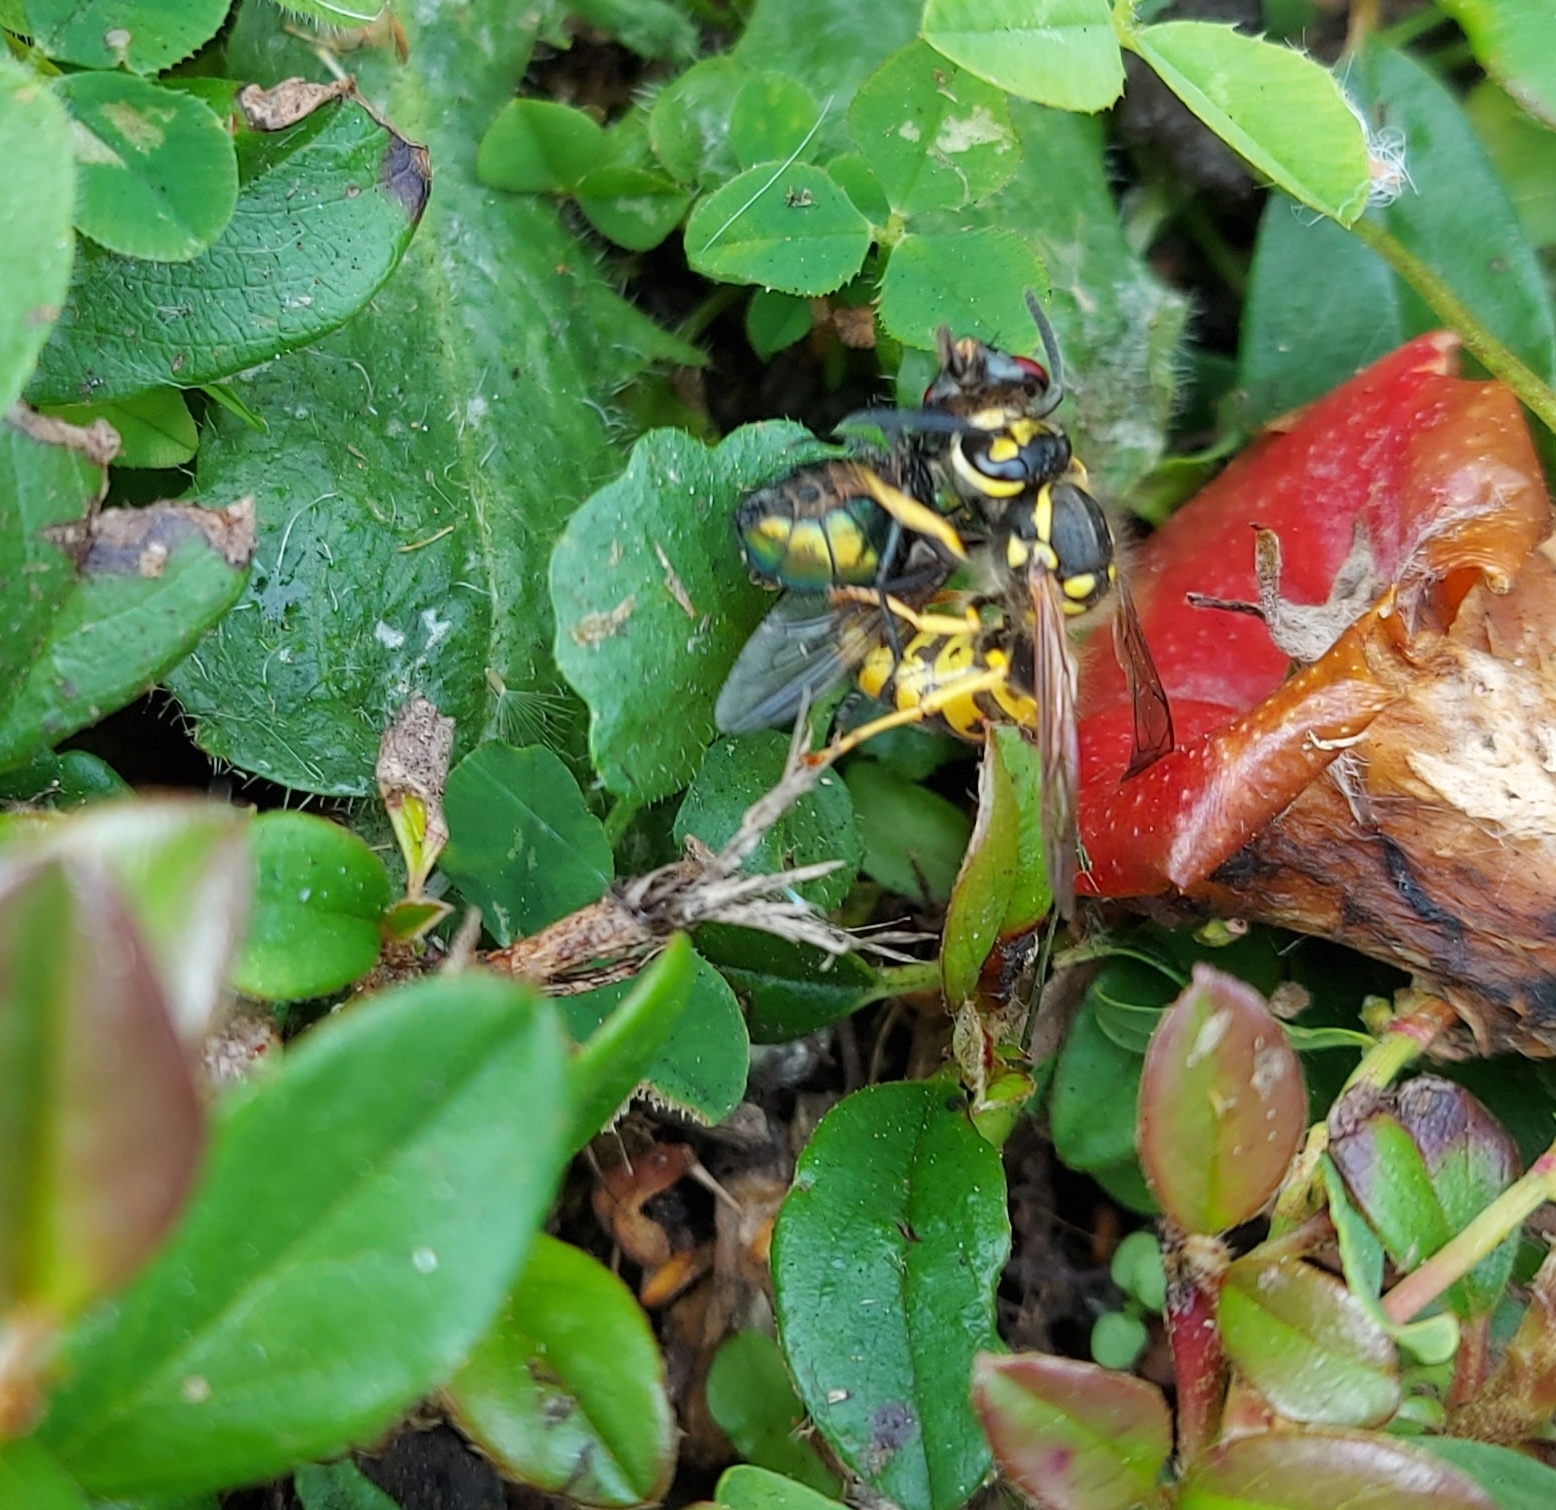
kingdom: Animalia
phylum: Arthropoda
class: Insecta
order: Hymenoptera
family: Vespidae
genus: Vespula
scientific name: Vespula germanica
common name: German wasp
